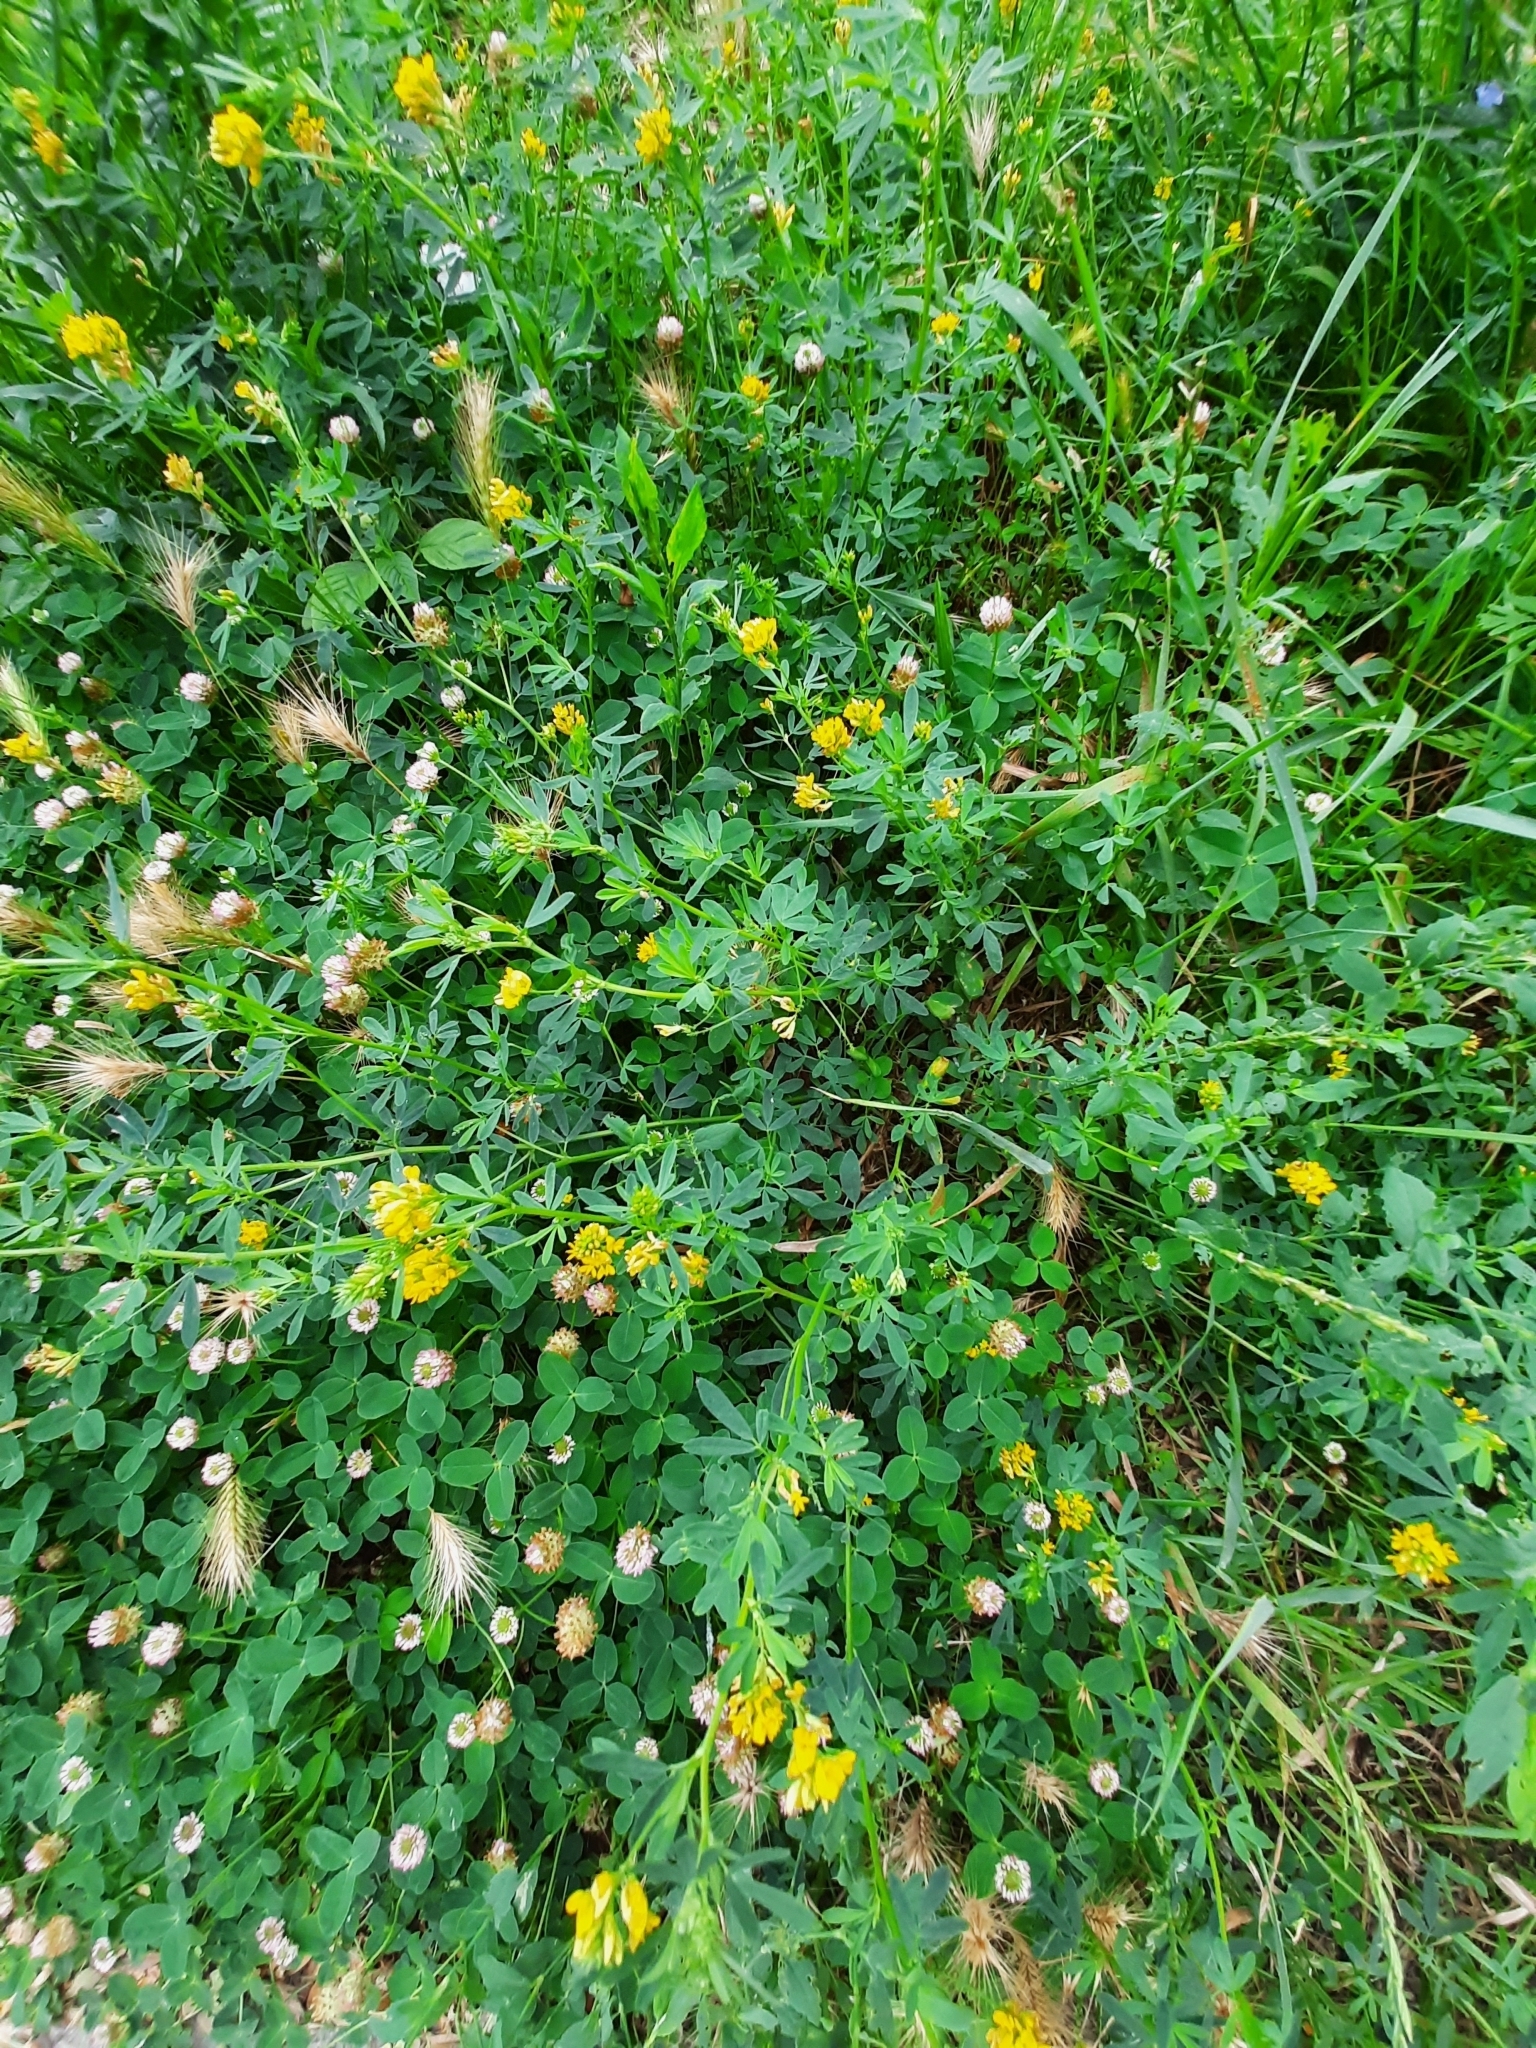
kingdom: Plantae
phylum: Tracheophyta
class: Magnoliopsida
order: Fabales
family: Fabaceae
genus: Medicago
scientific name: Medicago falcata
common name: Sickle medick
